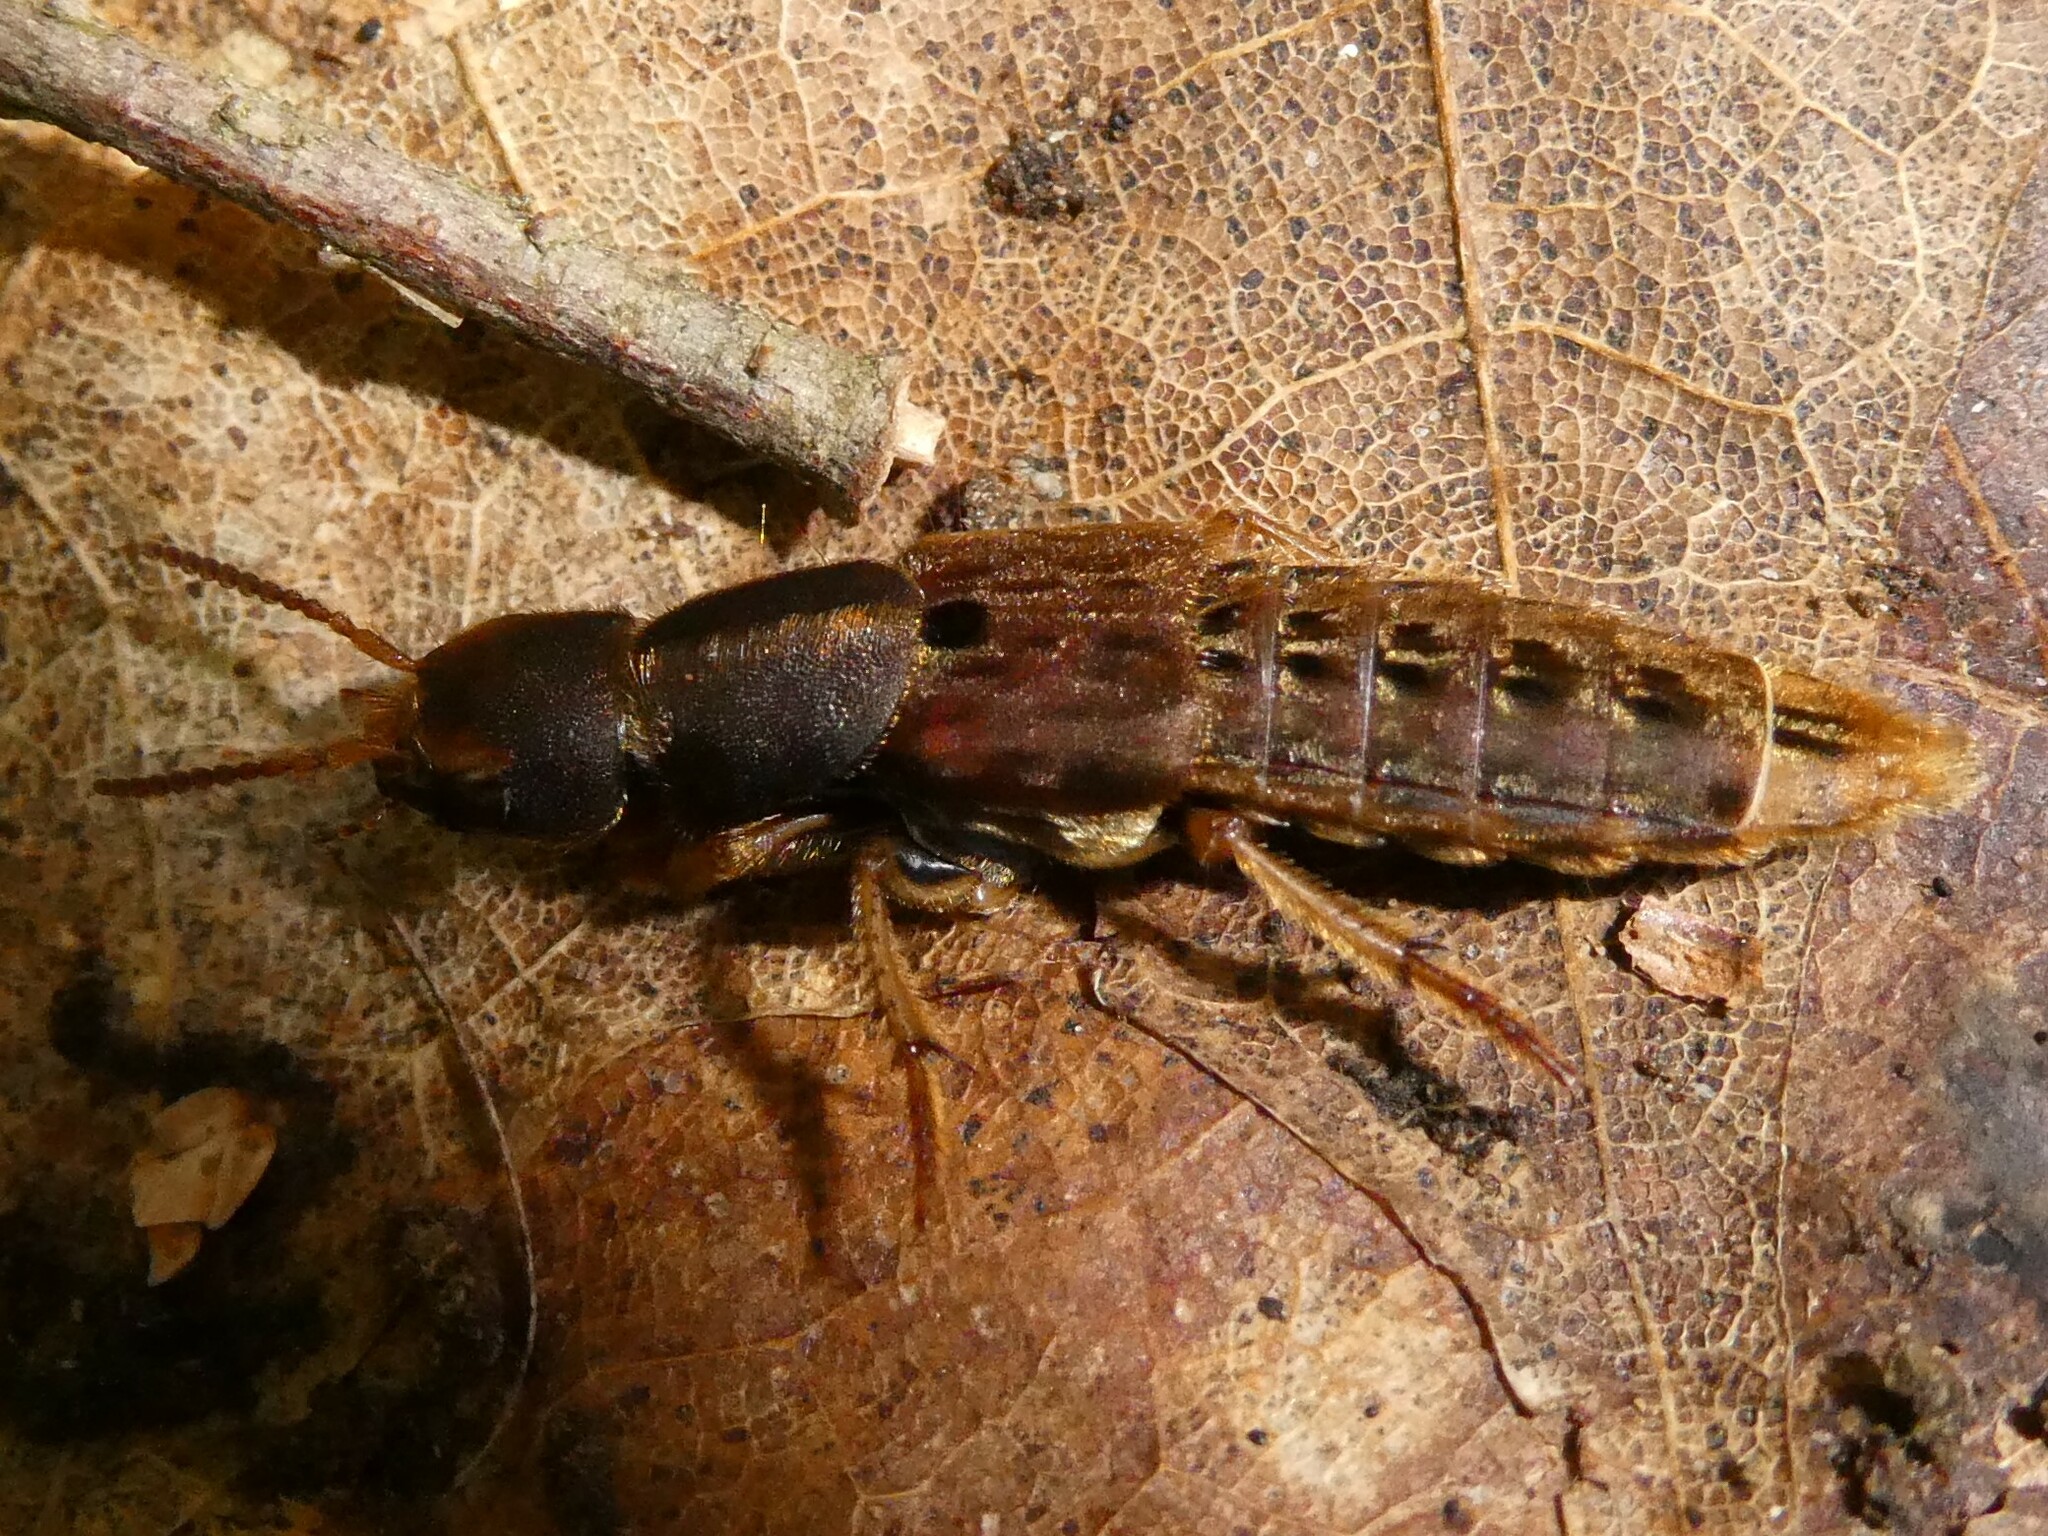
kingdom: Animalia
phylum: Arthropoda
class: Insecta
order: Coleoptera
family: Staphylinidae
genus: Platydracus
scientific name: Platydracus maculosus
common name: Brown rove beetle
